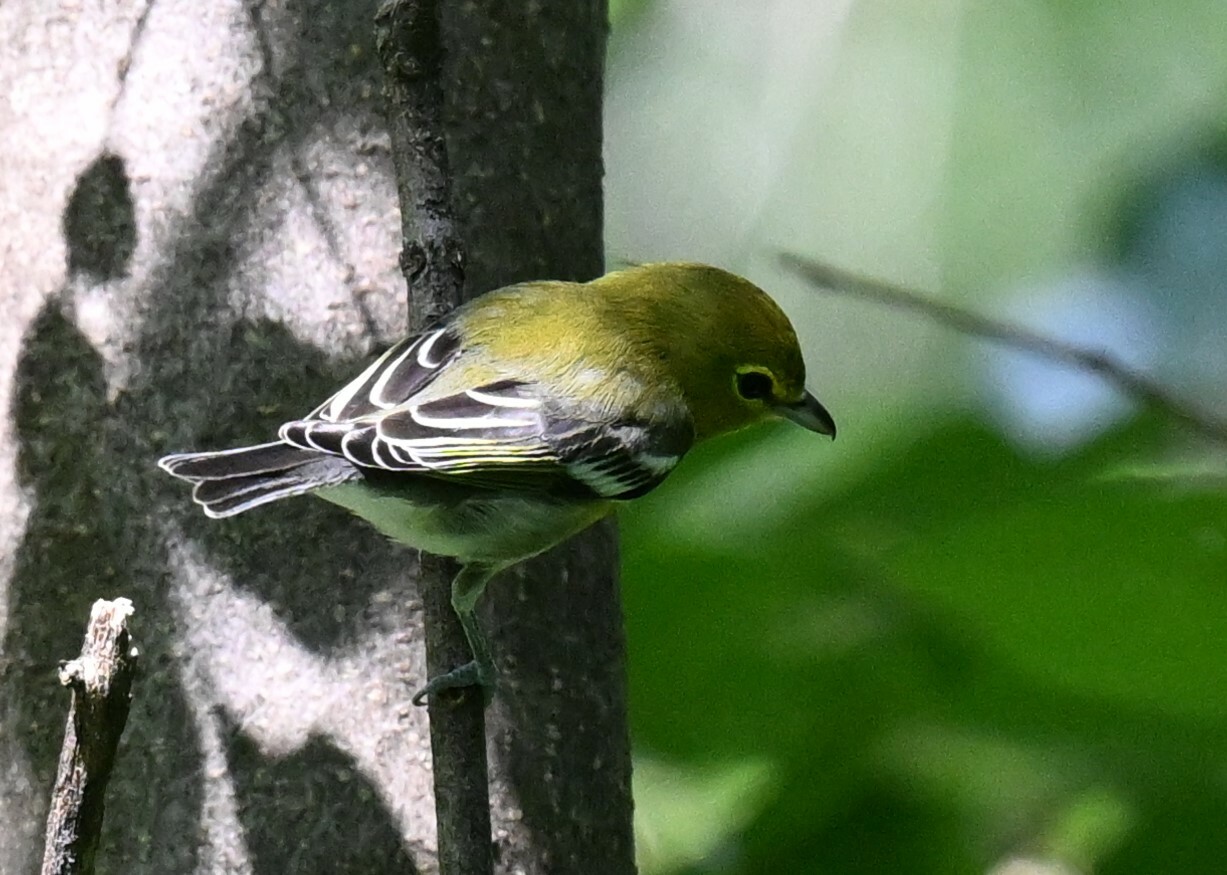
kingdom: Animalia
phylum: Chordata
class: Aves
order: Passeriformes
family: Vireonidae
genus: Vireo
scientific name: Vireo flavifrons
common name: Yellow-throated vireo
